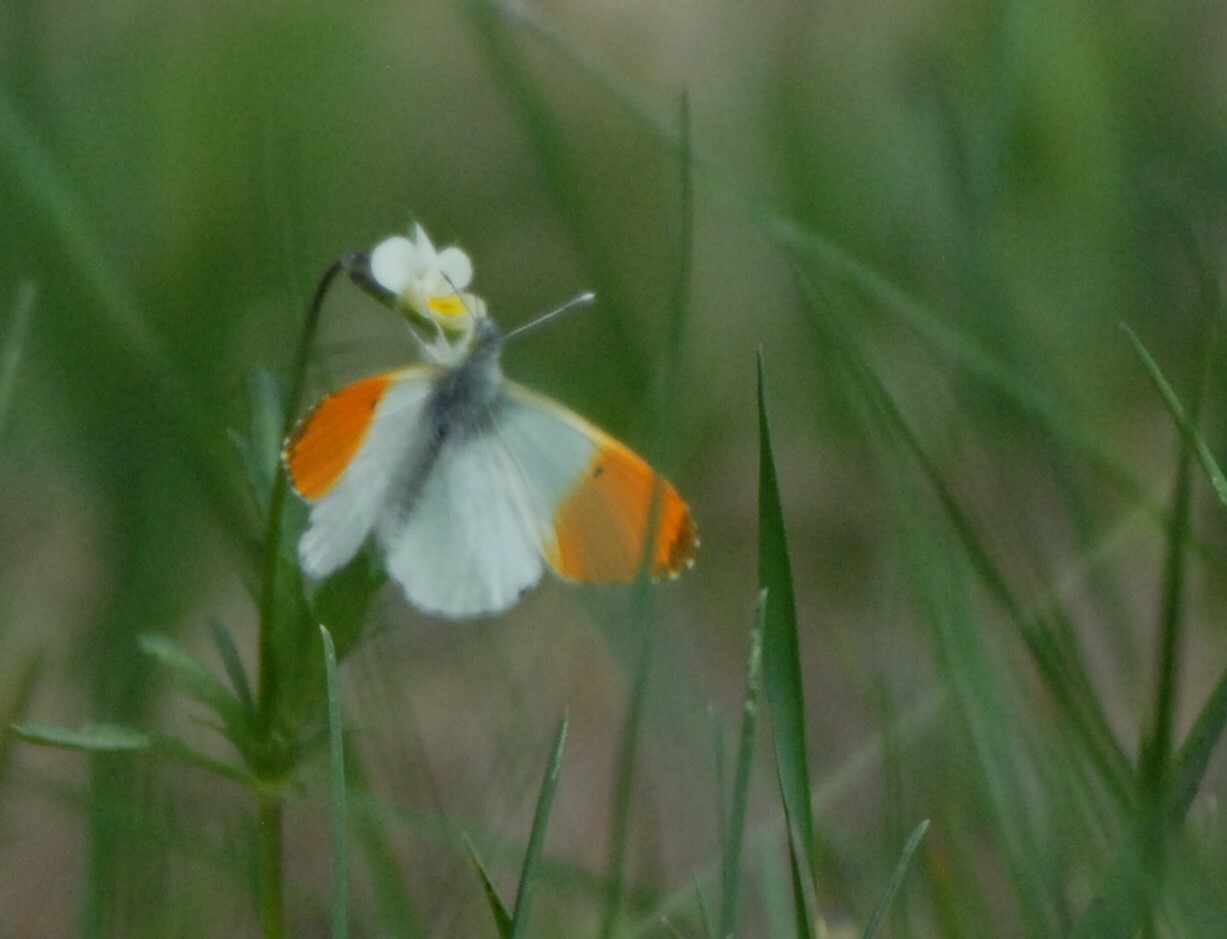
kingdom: Animalia
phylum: Arthropoda
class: Insecta
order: Lepidoptera
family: Pieridae
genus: Anthocharis
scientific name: Anthocharis cardamines
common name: Orange-tip
